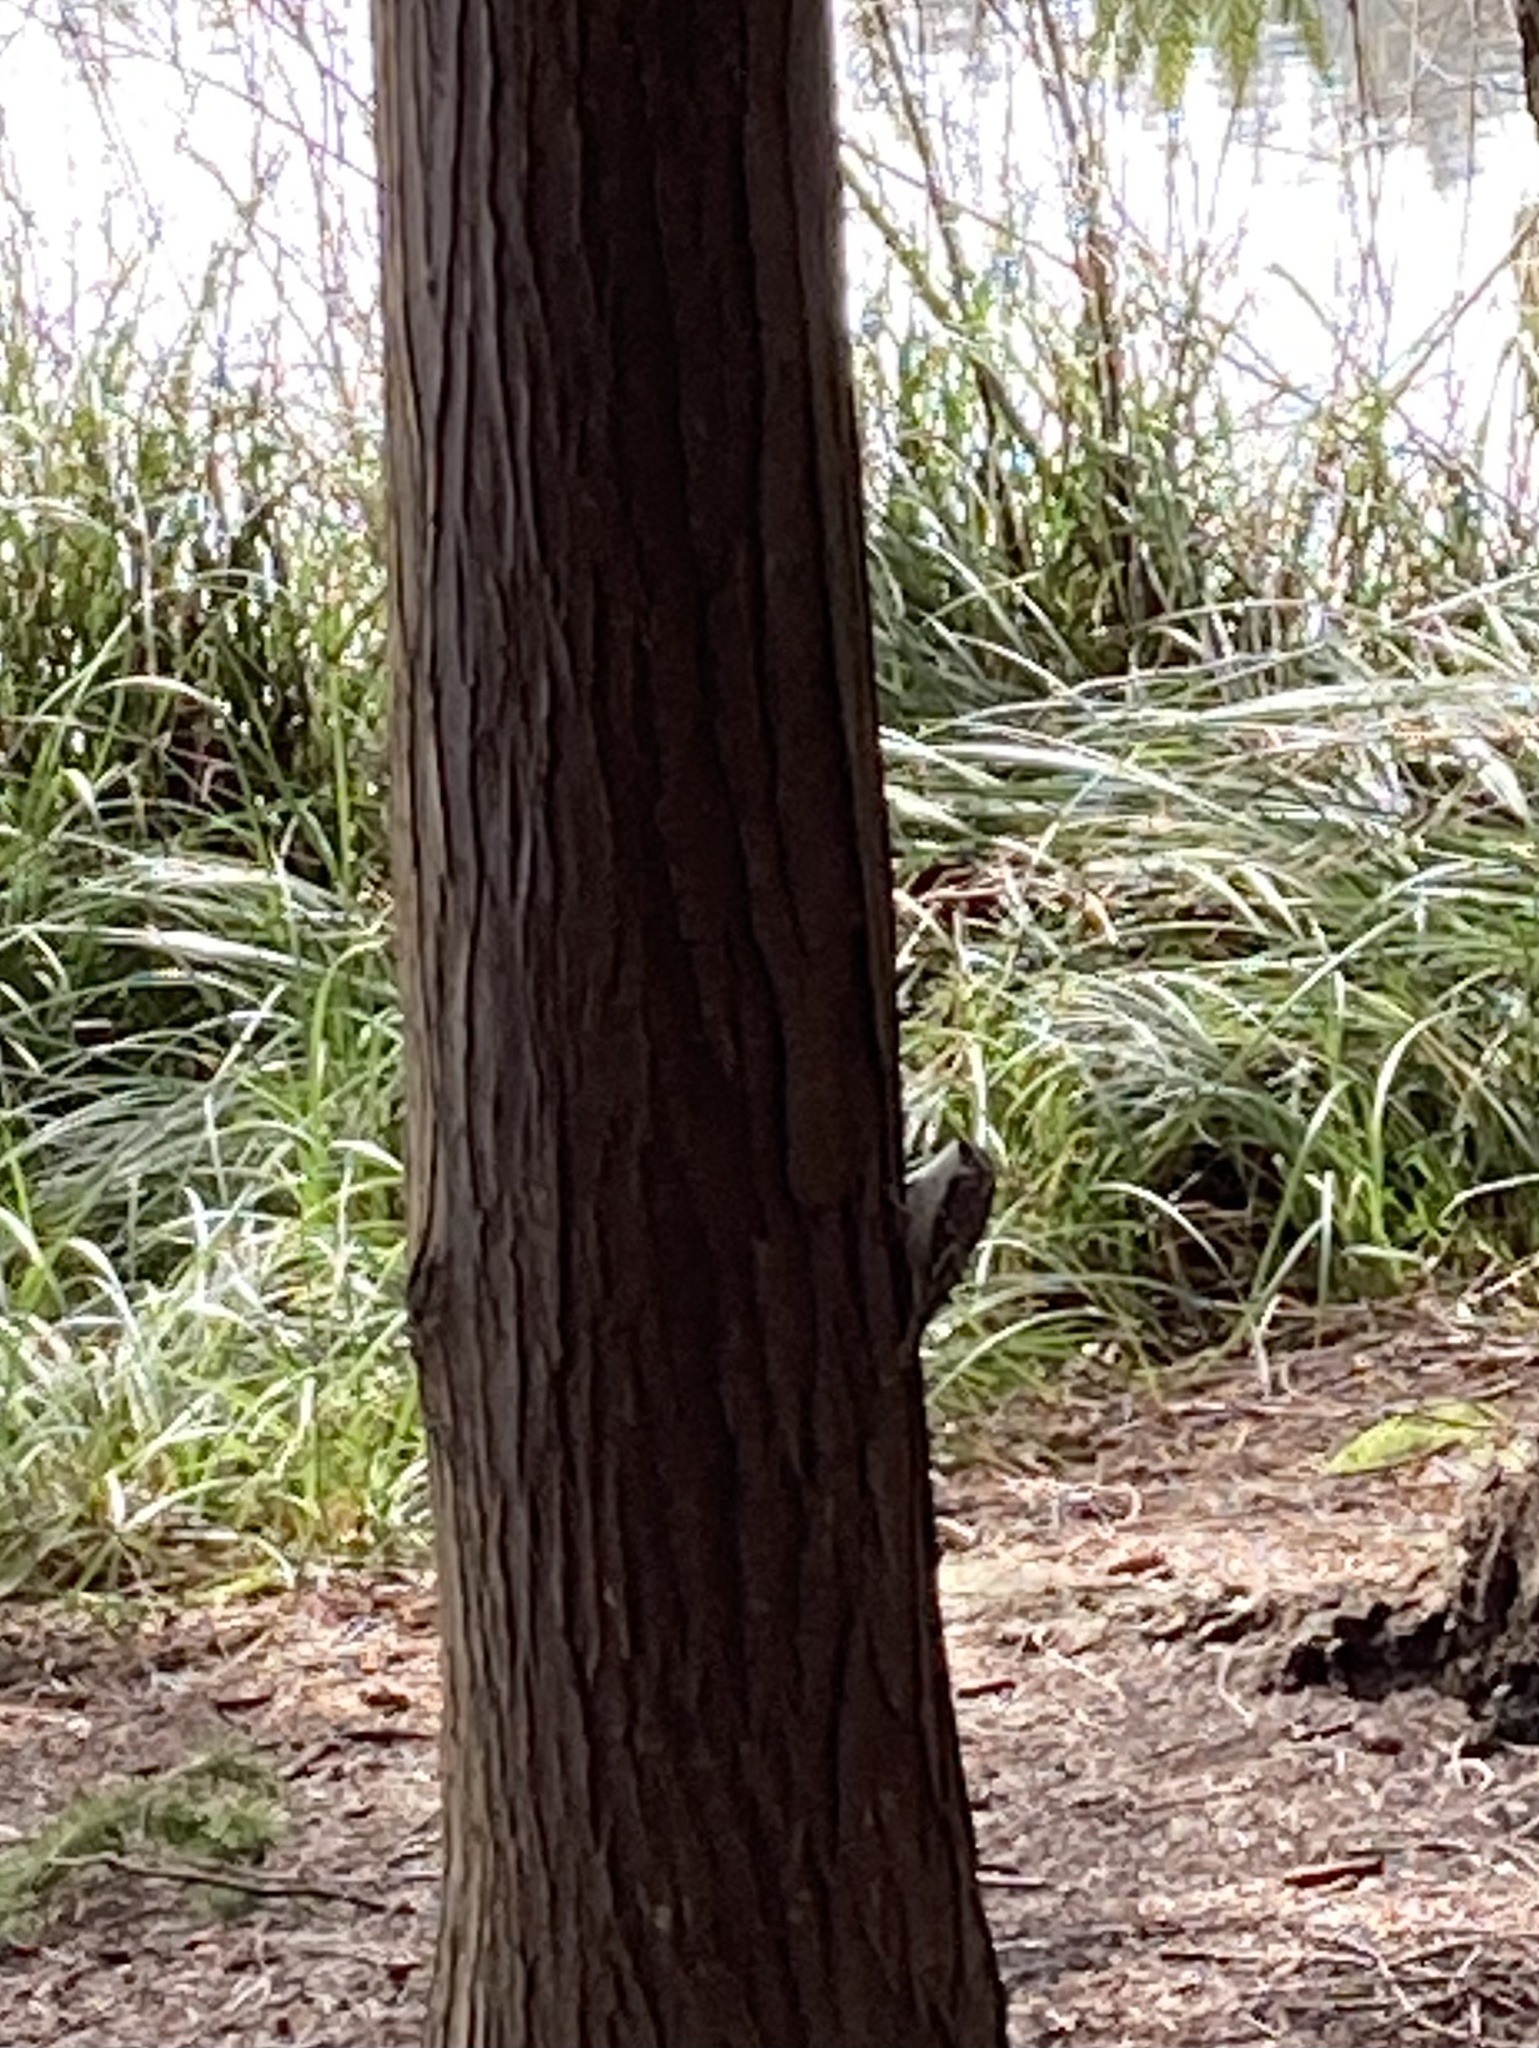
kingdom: Animalia
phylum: Chordata
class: Aves
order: Passeriformes
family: Certhiidae
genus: Certhia
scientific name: Certhia americana
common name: Brown creeper
